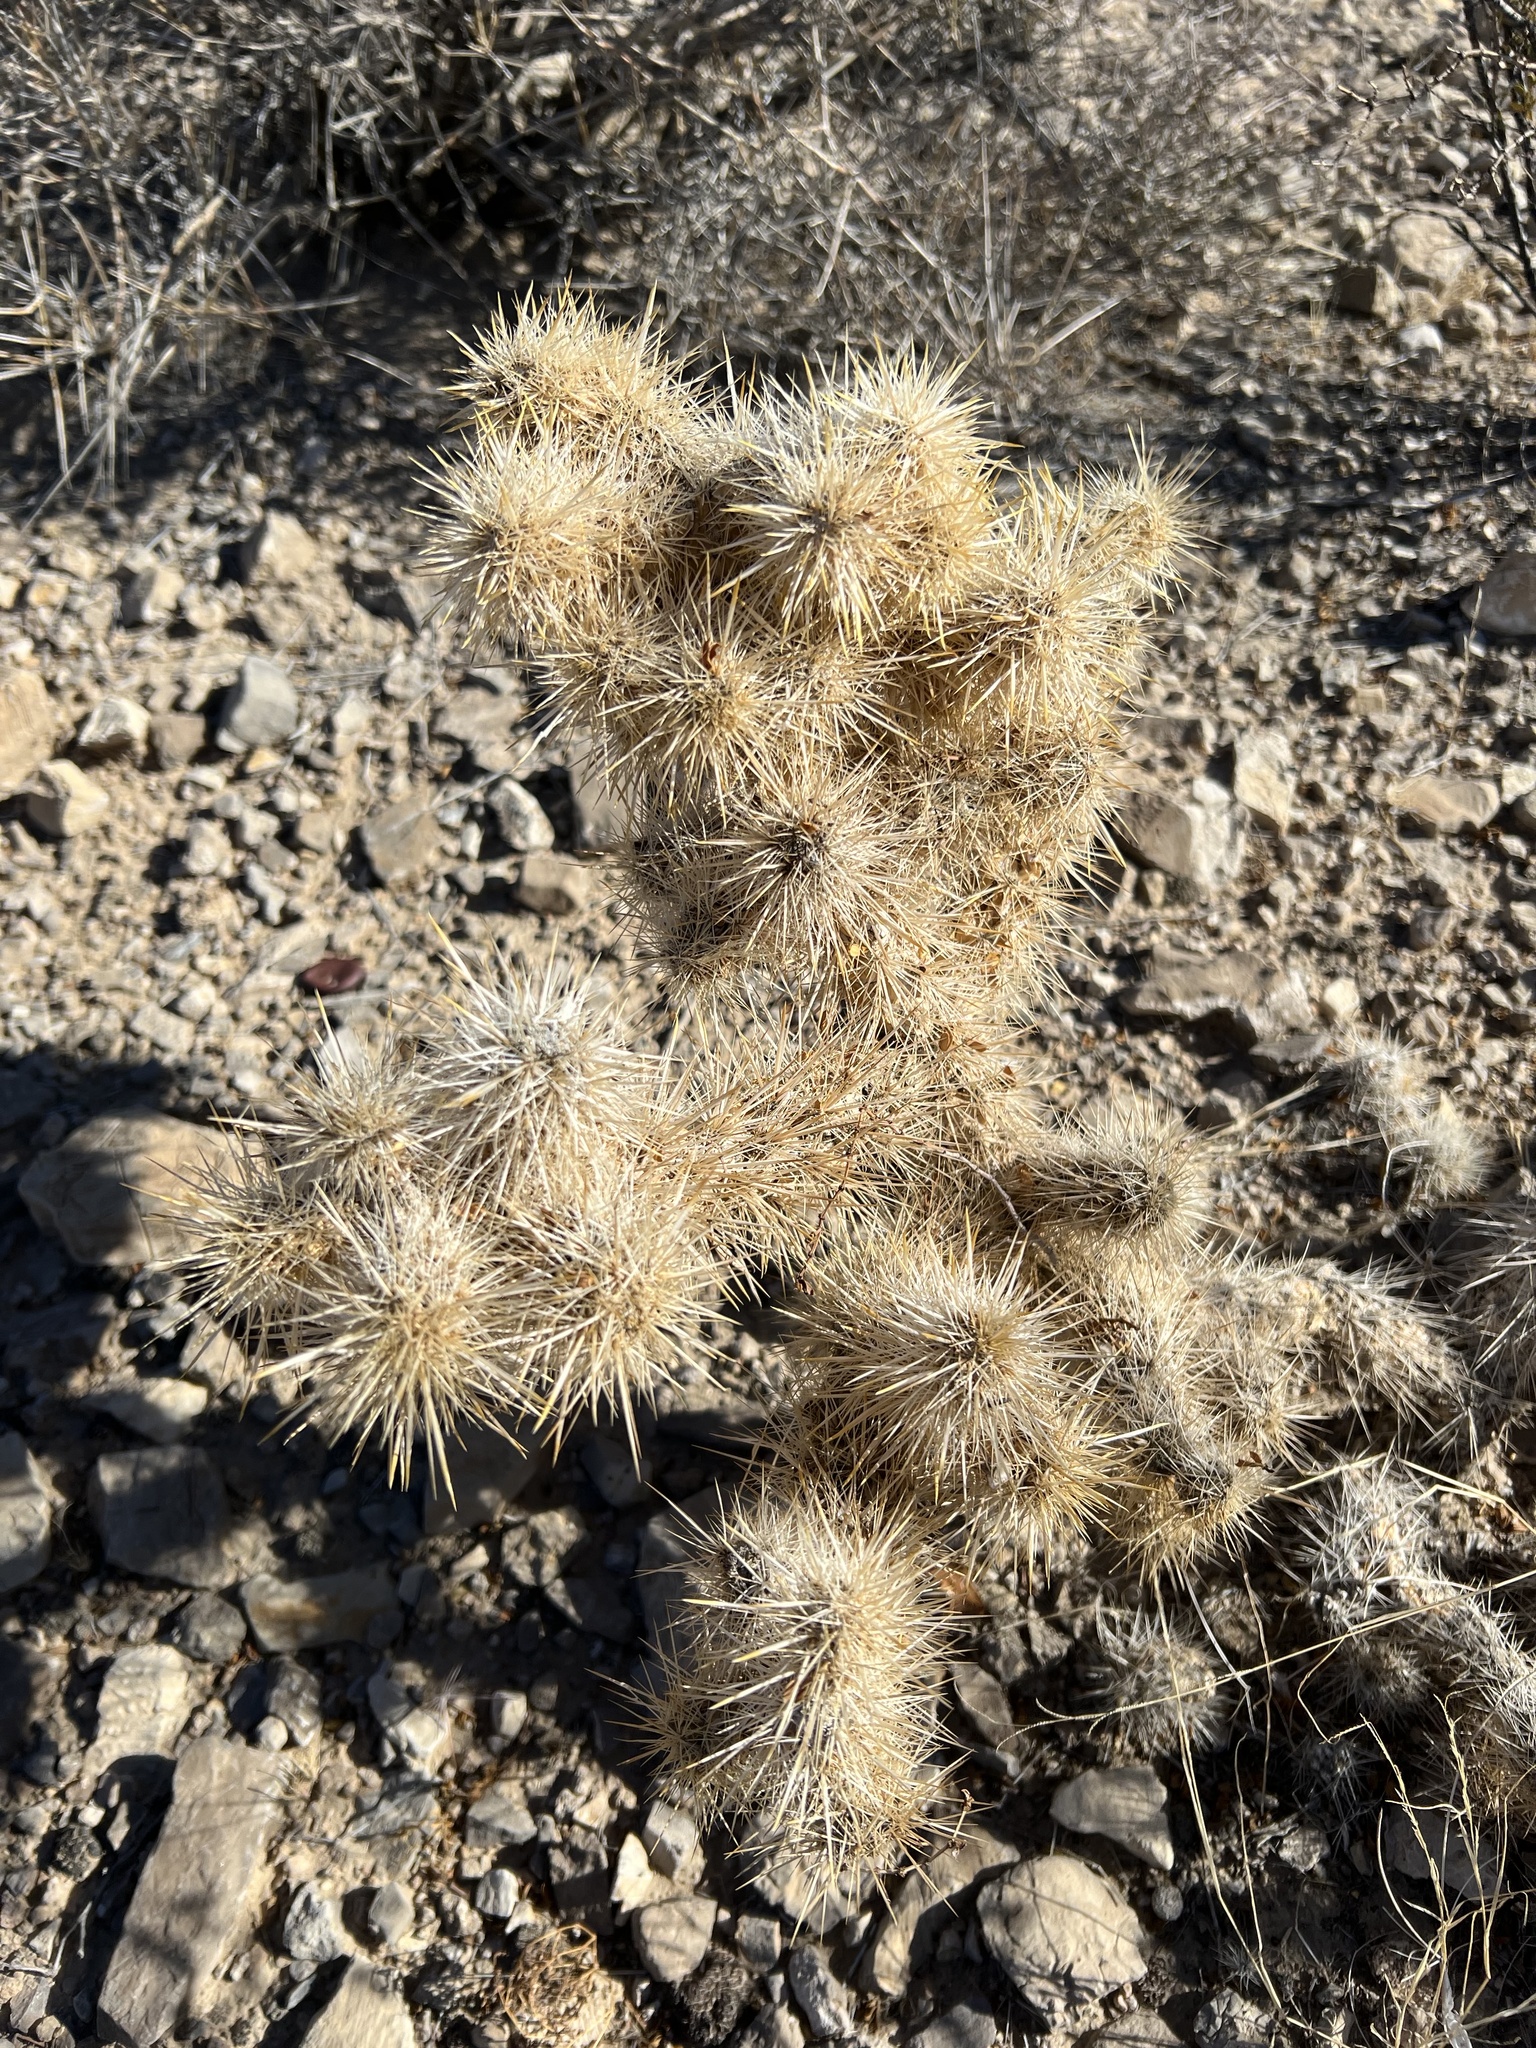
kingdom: Plantae
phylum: Tracheophyta
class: Magnoliopsida
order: Caryophyllales
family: Cactaceae
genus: Cylindropuntia
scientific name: Cylindropuntia echinocarpa
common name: Ground cholla
